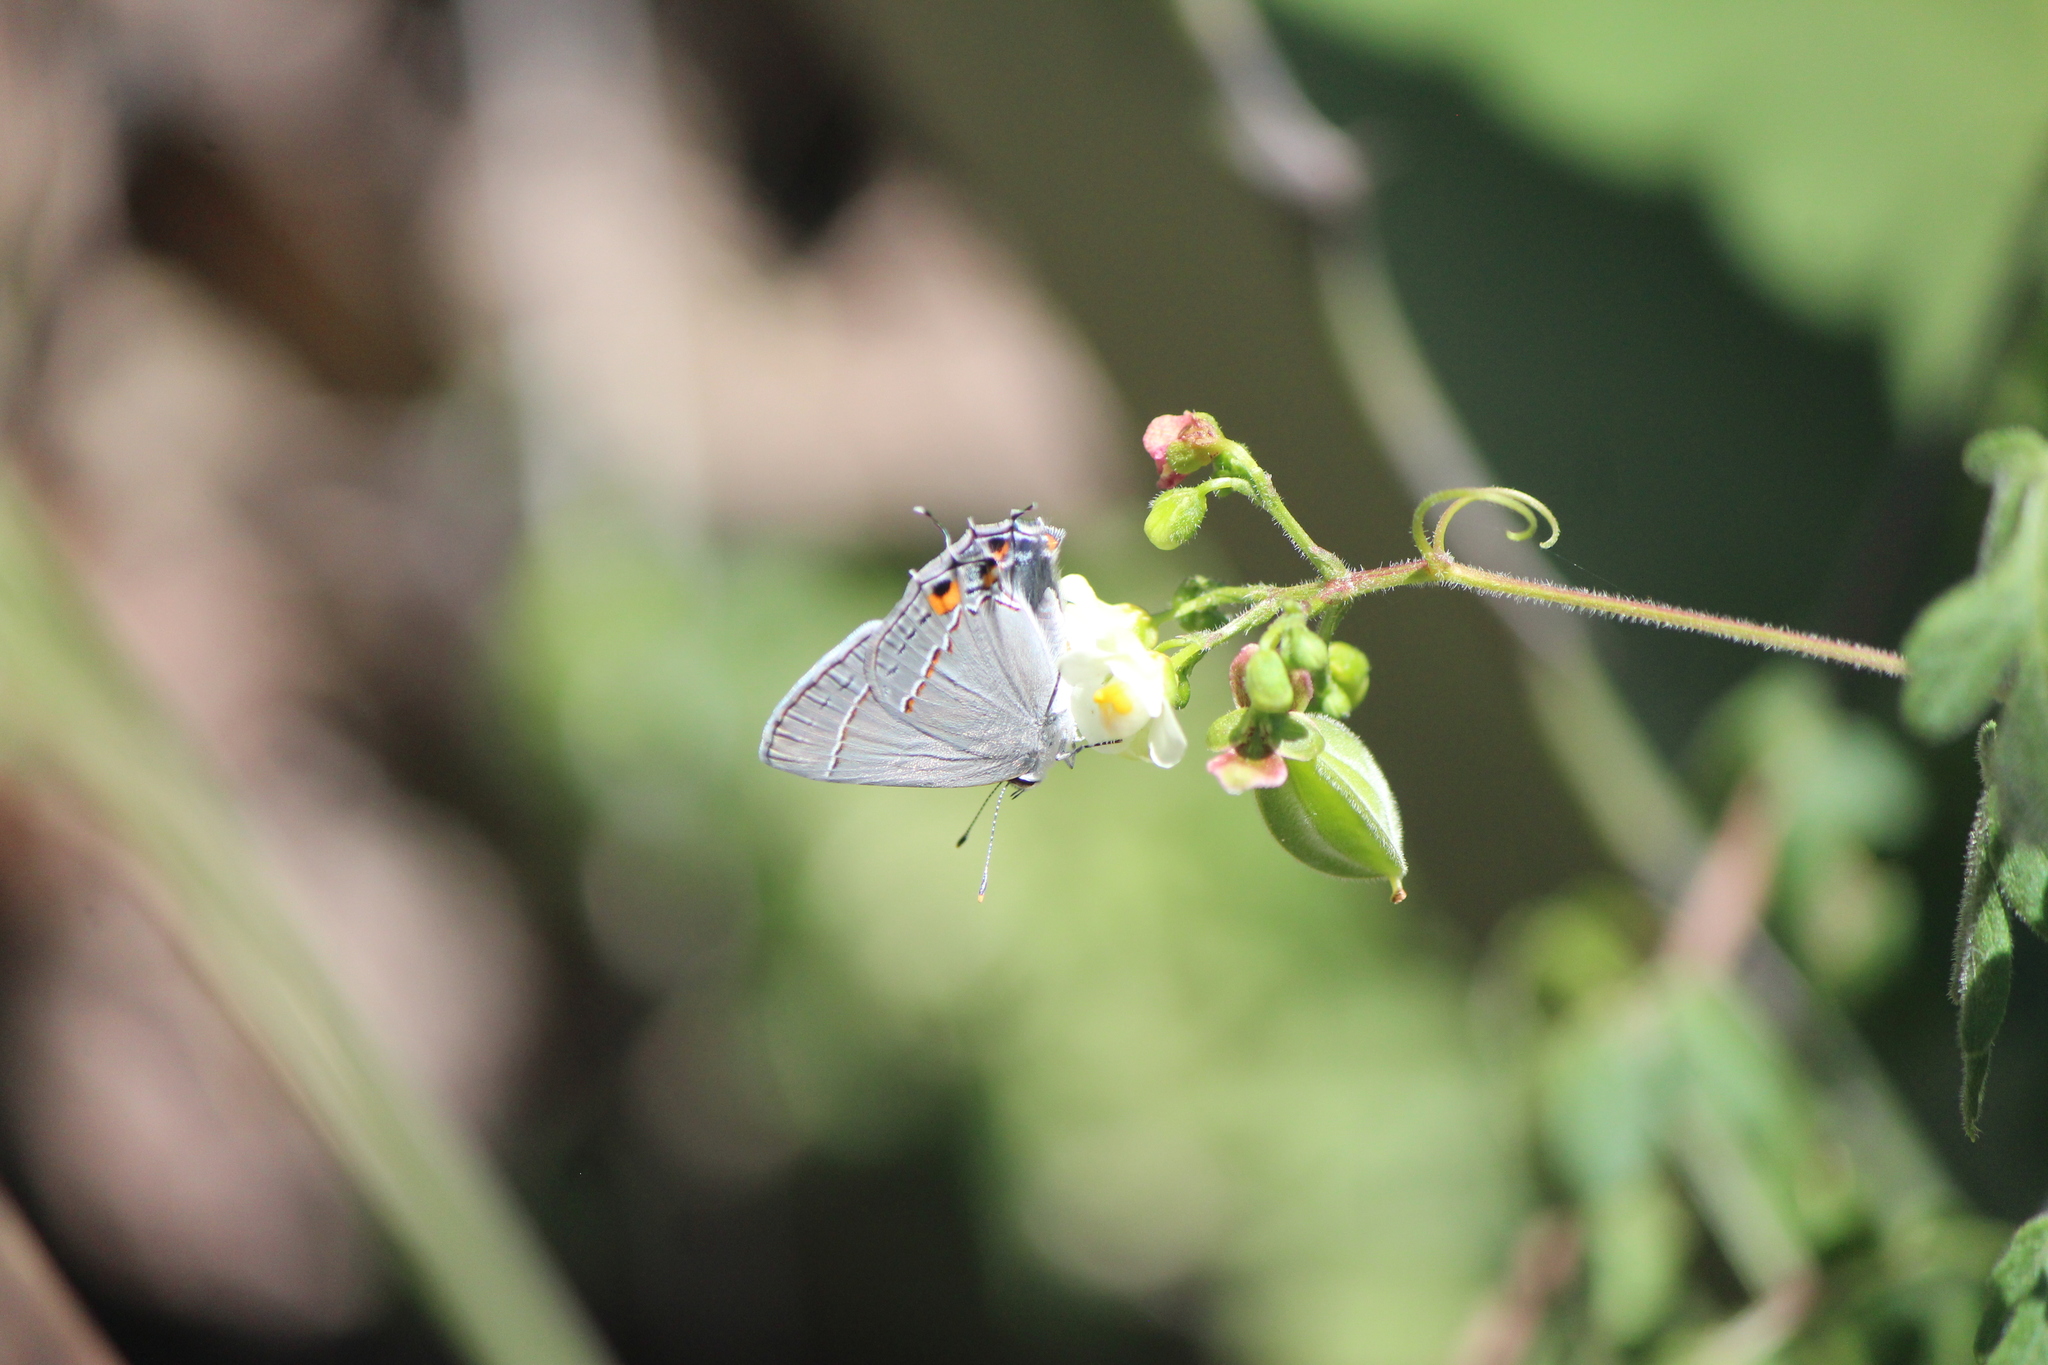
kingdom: Animalia
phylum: Arthropoda
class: Insecta
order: Lepidoptera
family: Lycaenidae
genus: Strymon
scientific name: Strymon melinus
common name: Gray hairstreak
